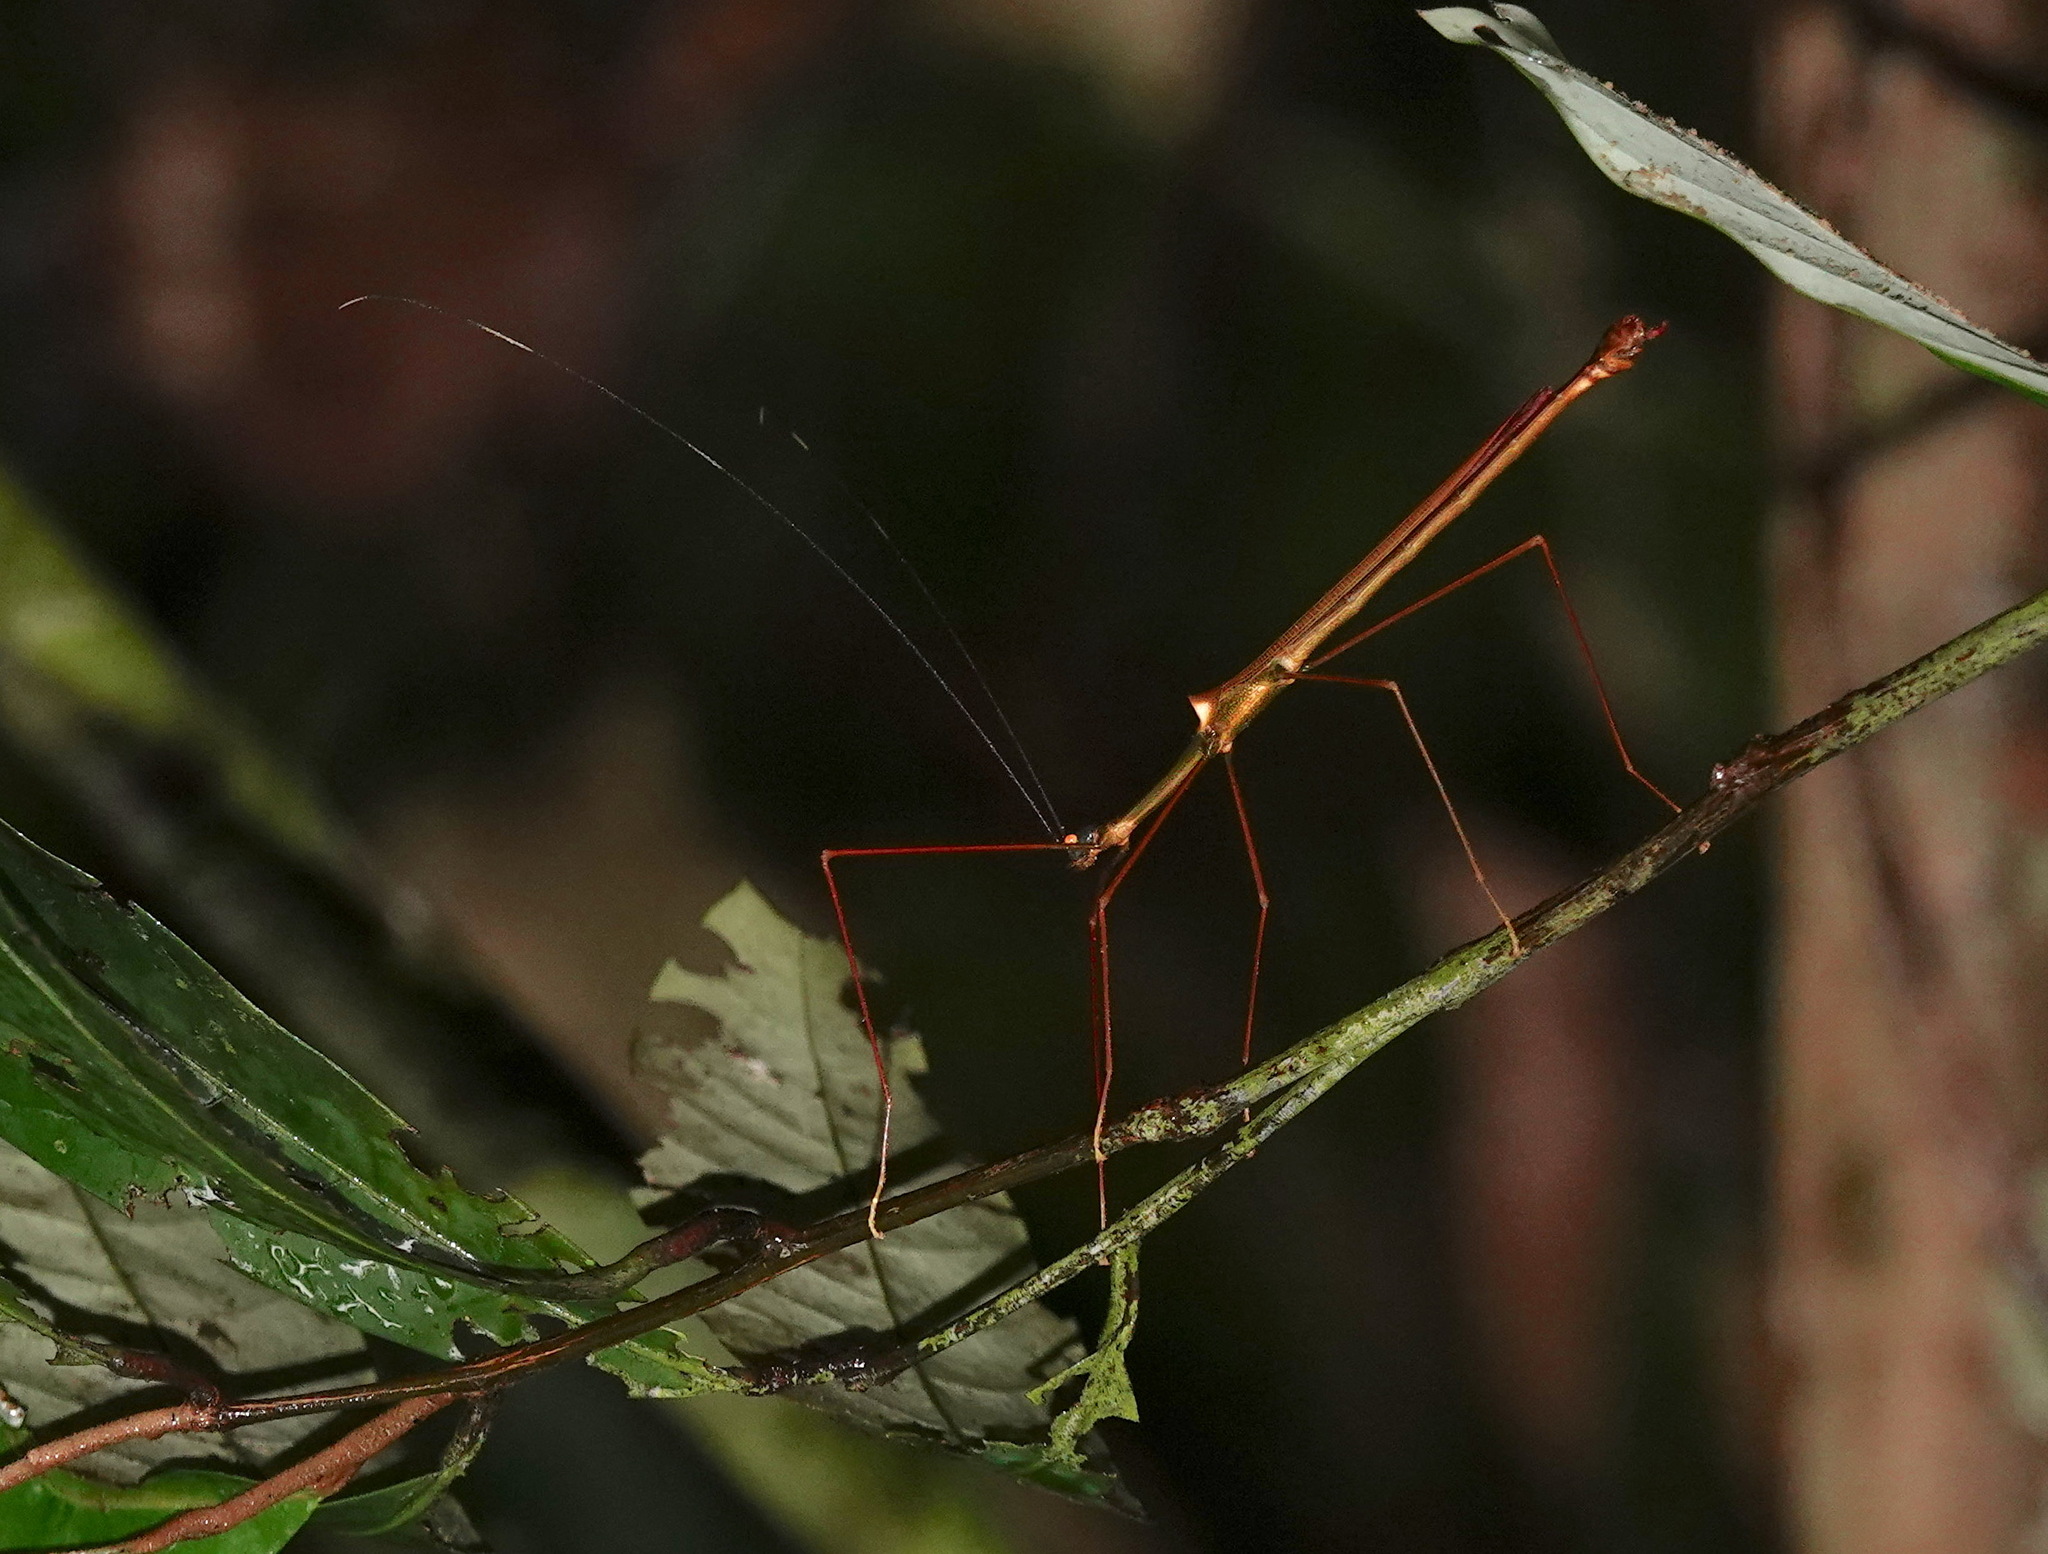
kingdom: Animalia
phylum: Arthropoda
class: Insecta
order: Phasmida
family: Lonchodidae
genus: Marmessoidea
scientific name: Marmessoidea rubescens
